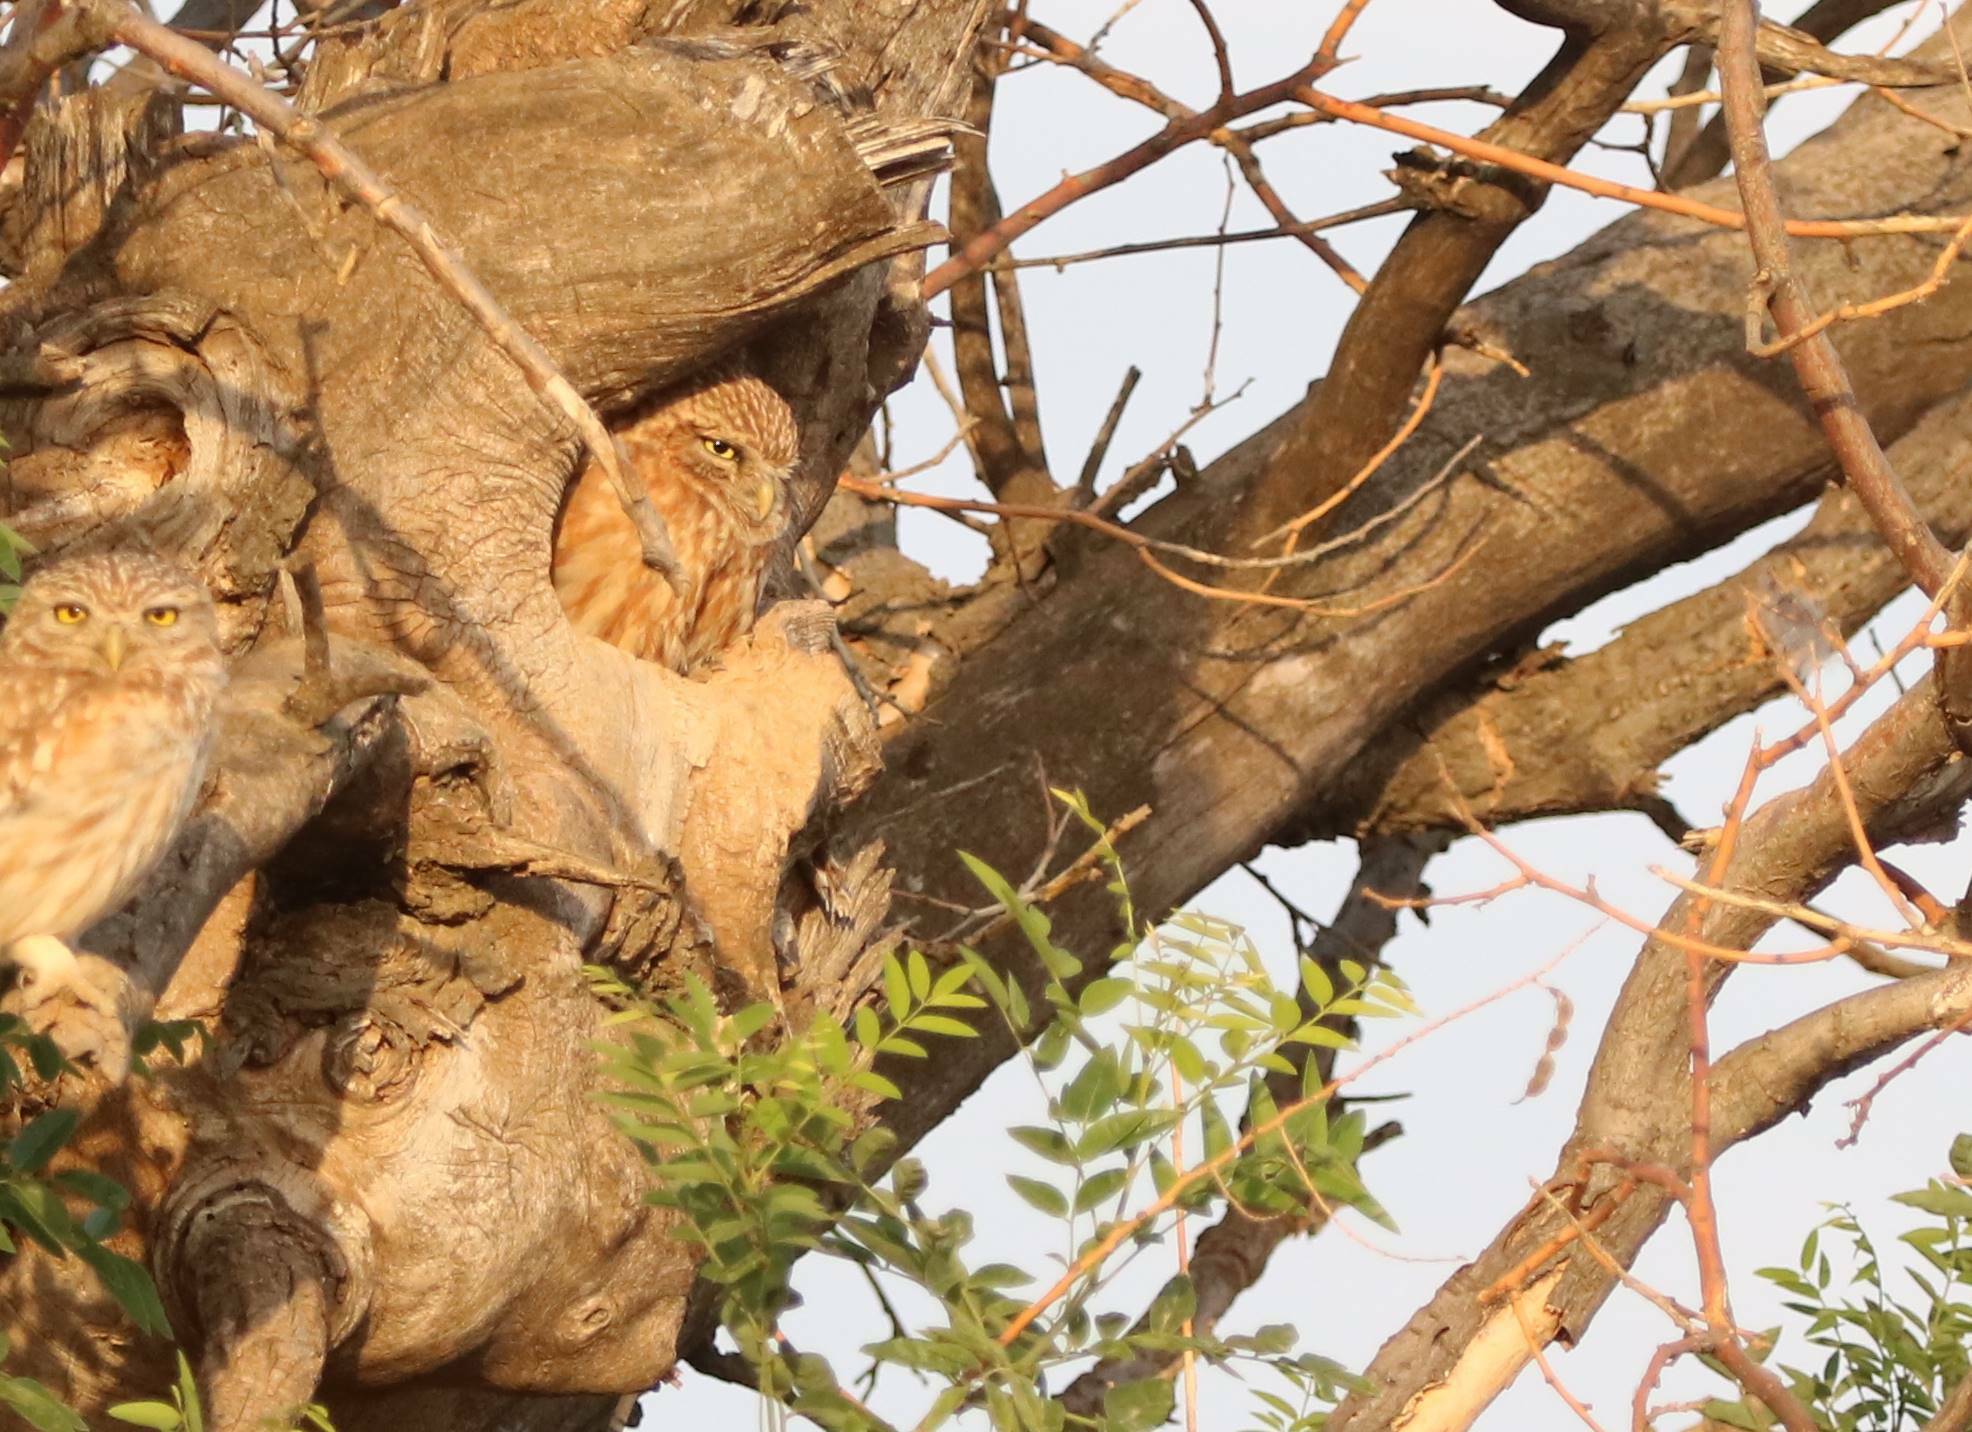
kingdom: Animalia
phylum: Chordata
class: Aves
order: Strigiformes
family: Strigidae
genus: Athene
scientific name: Athene noctua
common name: Little owl
